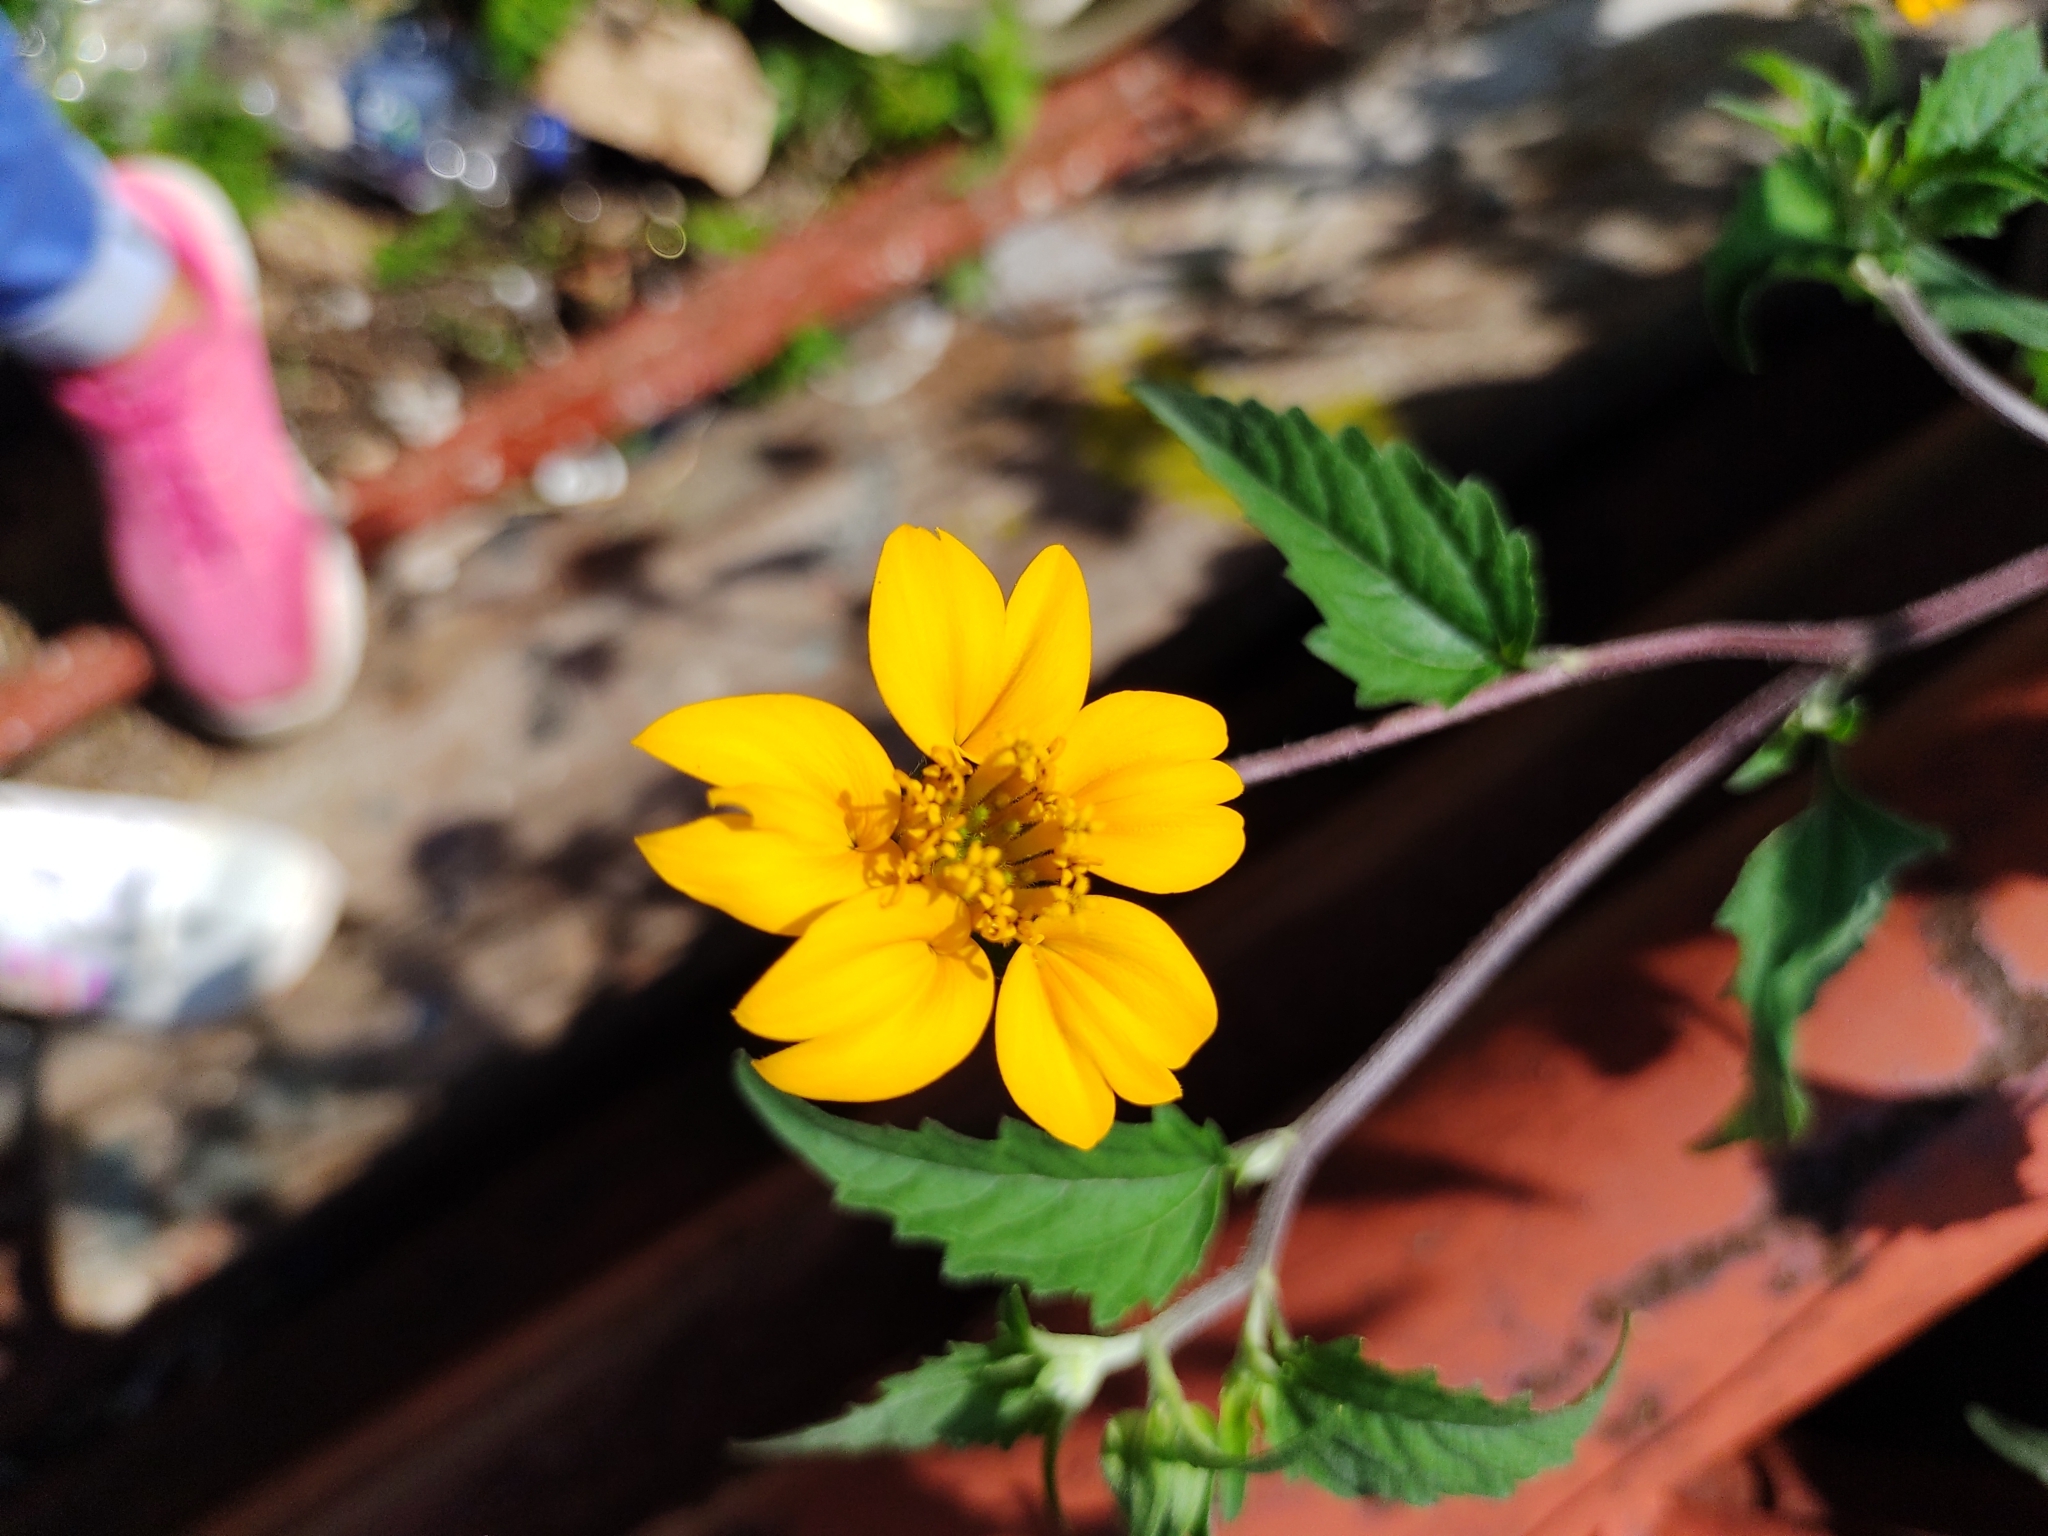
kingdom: Plantae
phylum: Tracheophyta
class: Magnoliopsida
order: Asterales
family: Asteraceae
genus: Sclerocarpus
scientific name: Sclerocarpus divaricatus
